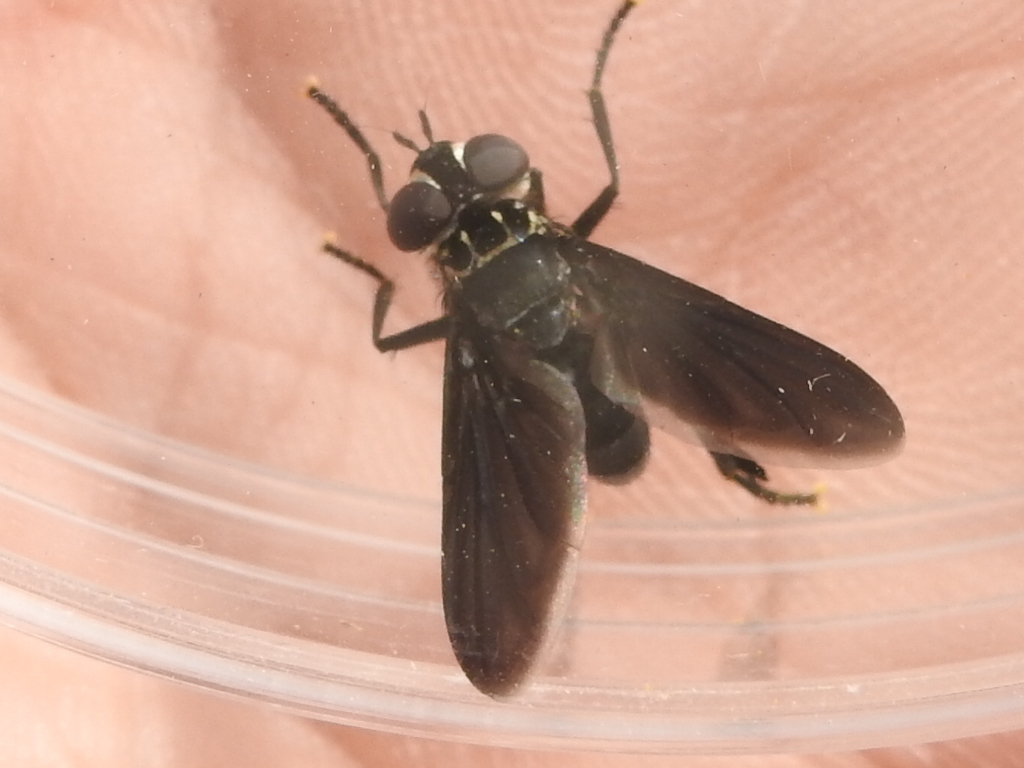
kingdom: Animalia
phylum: Arthropoda
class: Insecta
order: Diptera
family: Tachinidae
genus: Trichopoda
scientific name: Trichopoda lanipes
